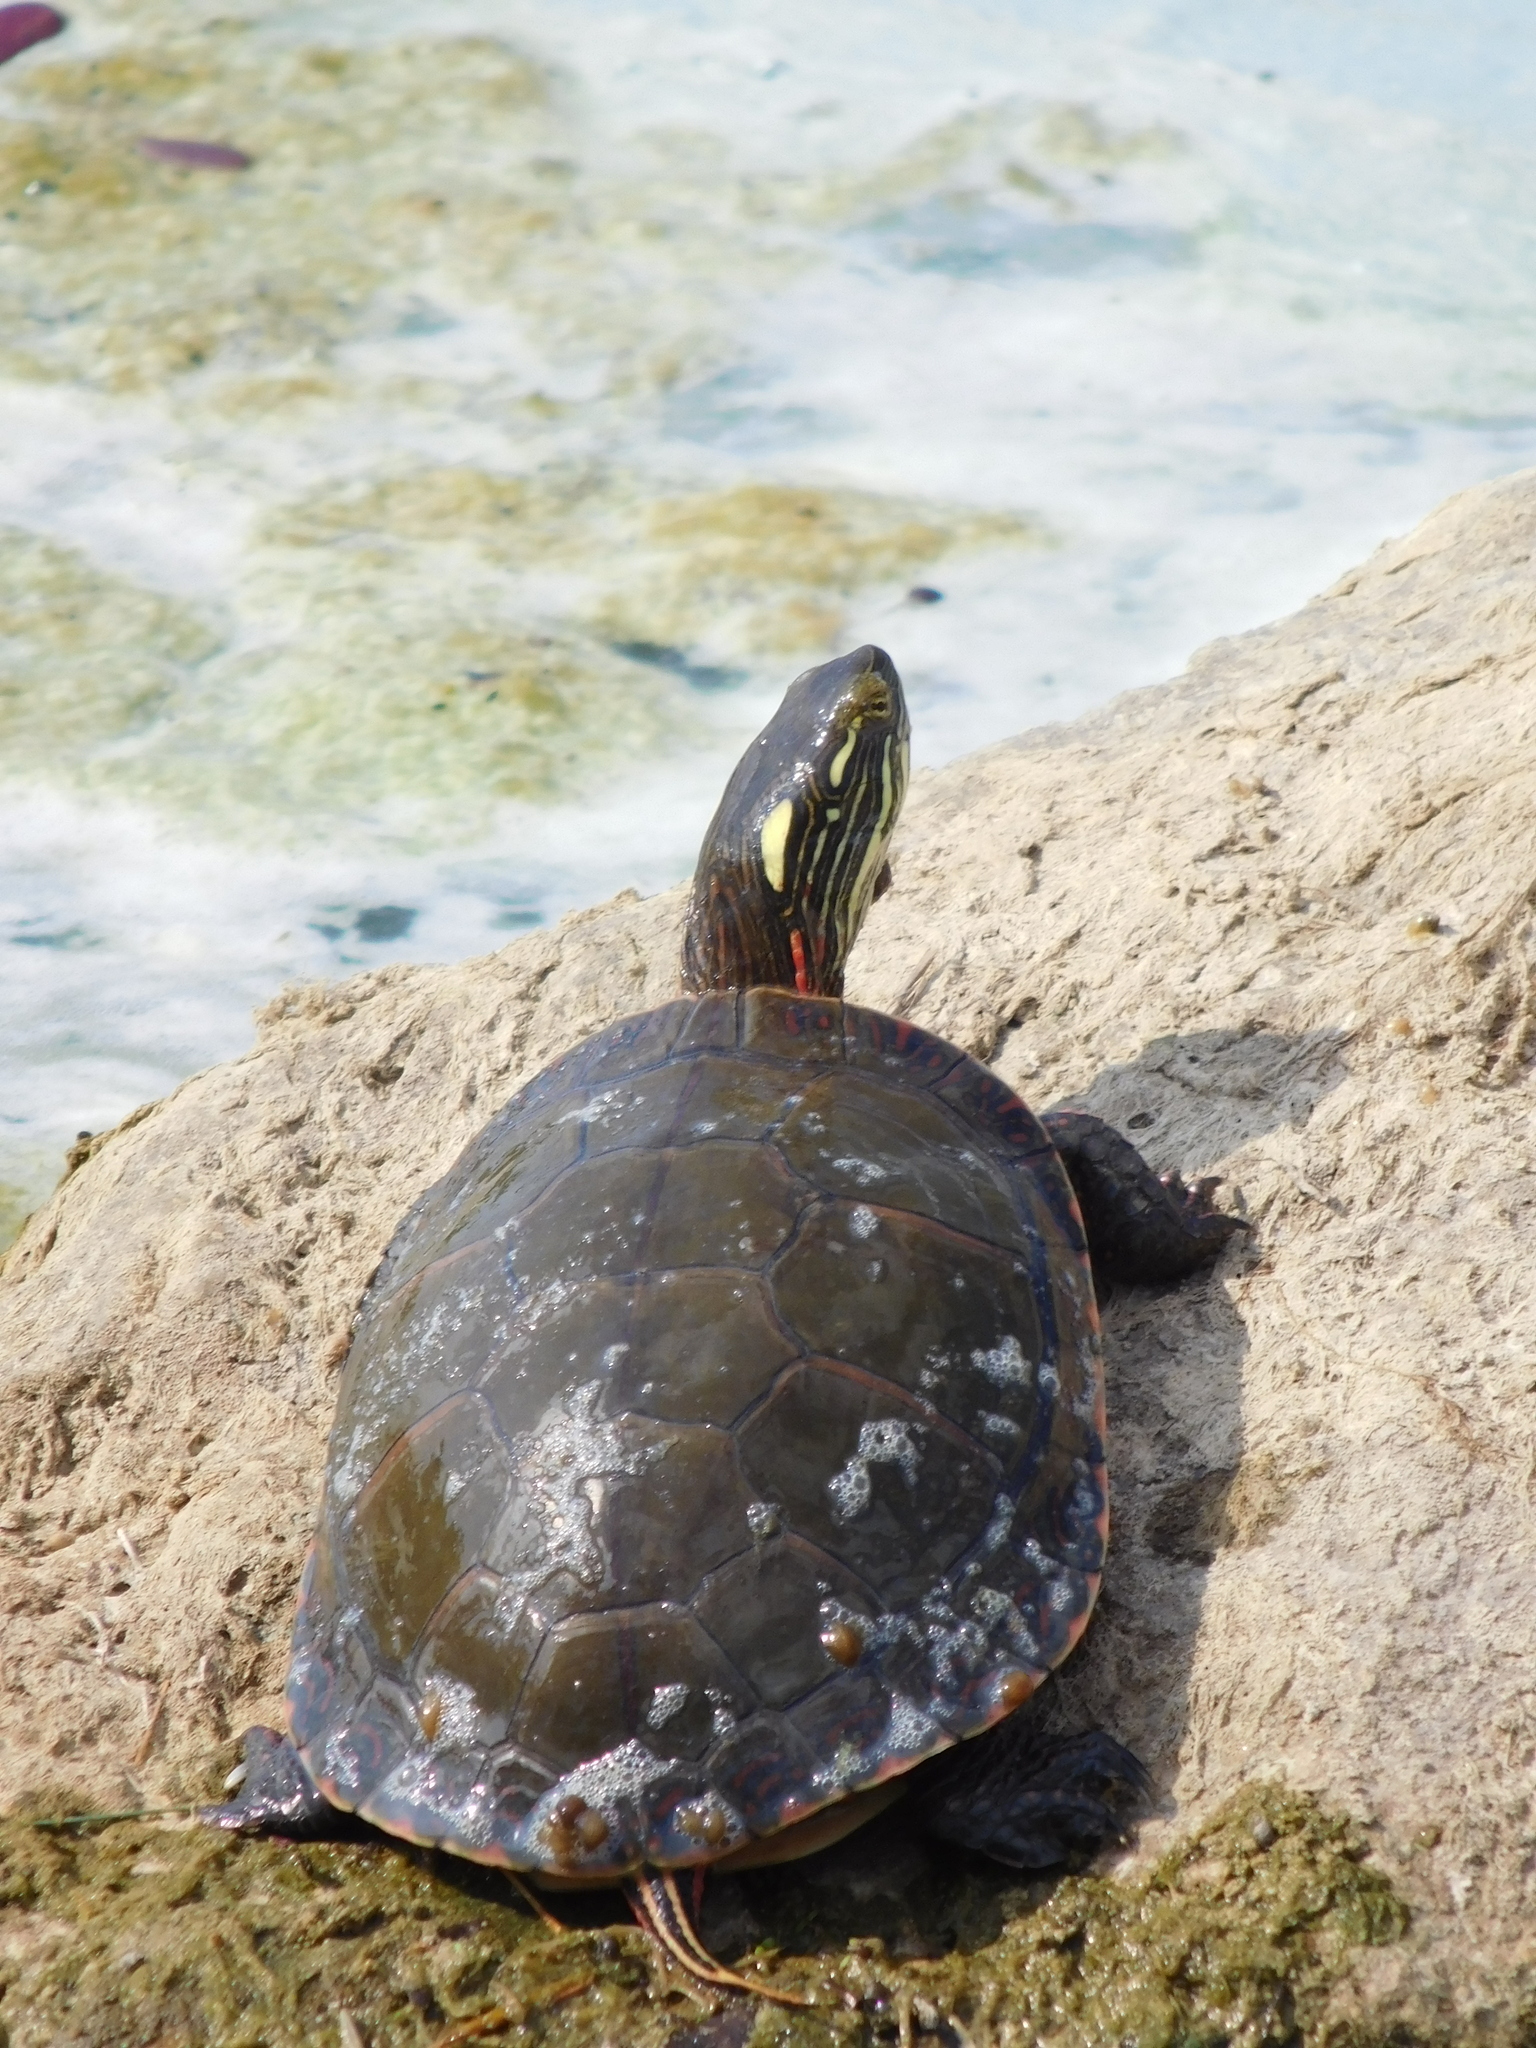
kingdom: Animalia
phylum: Chordata
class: Testudines
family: Emydidae
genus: Chrysemys
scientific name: Chrysemys picta
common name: Painted turtle
